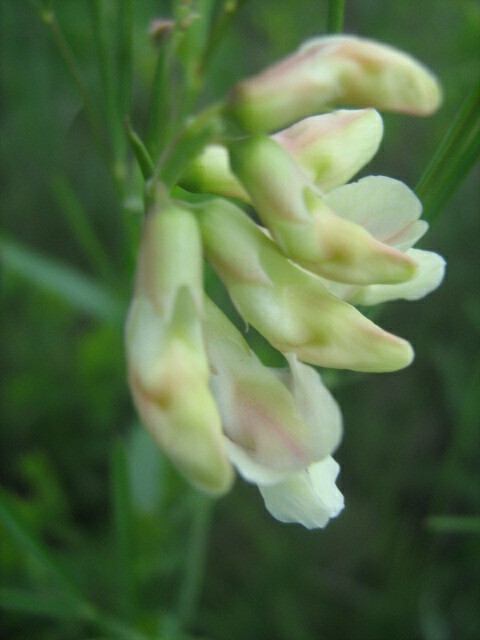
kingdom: Plantae
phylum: Tracheophyta
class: Magnoliopsida
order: Fabales
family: Fabaceae
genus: Lathyrus
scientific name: Lathyrus pannonicus
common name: Pea
